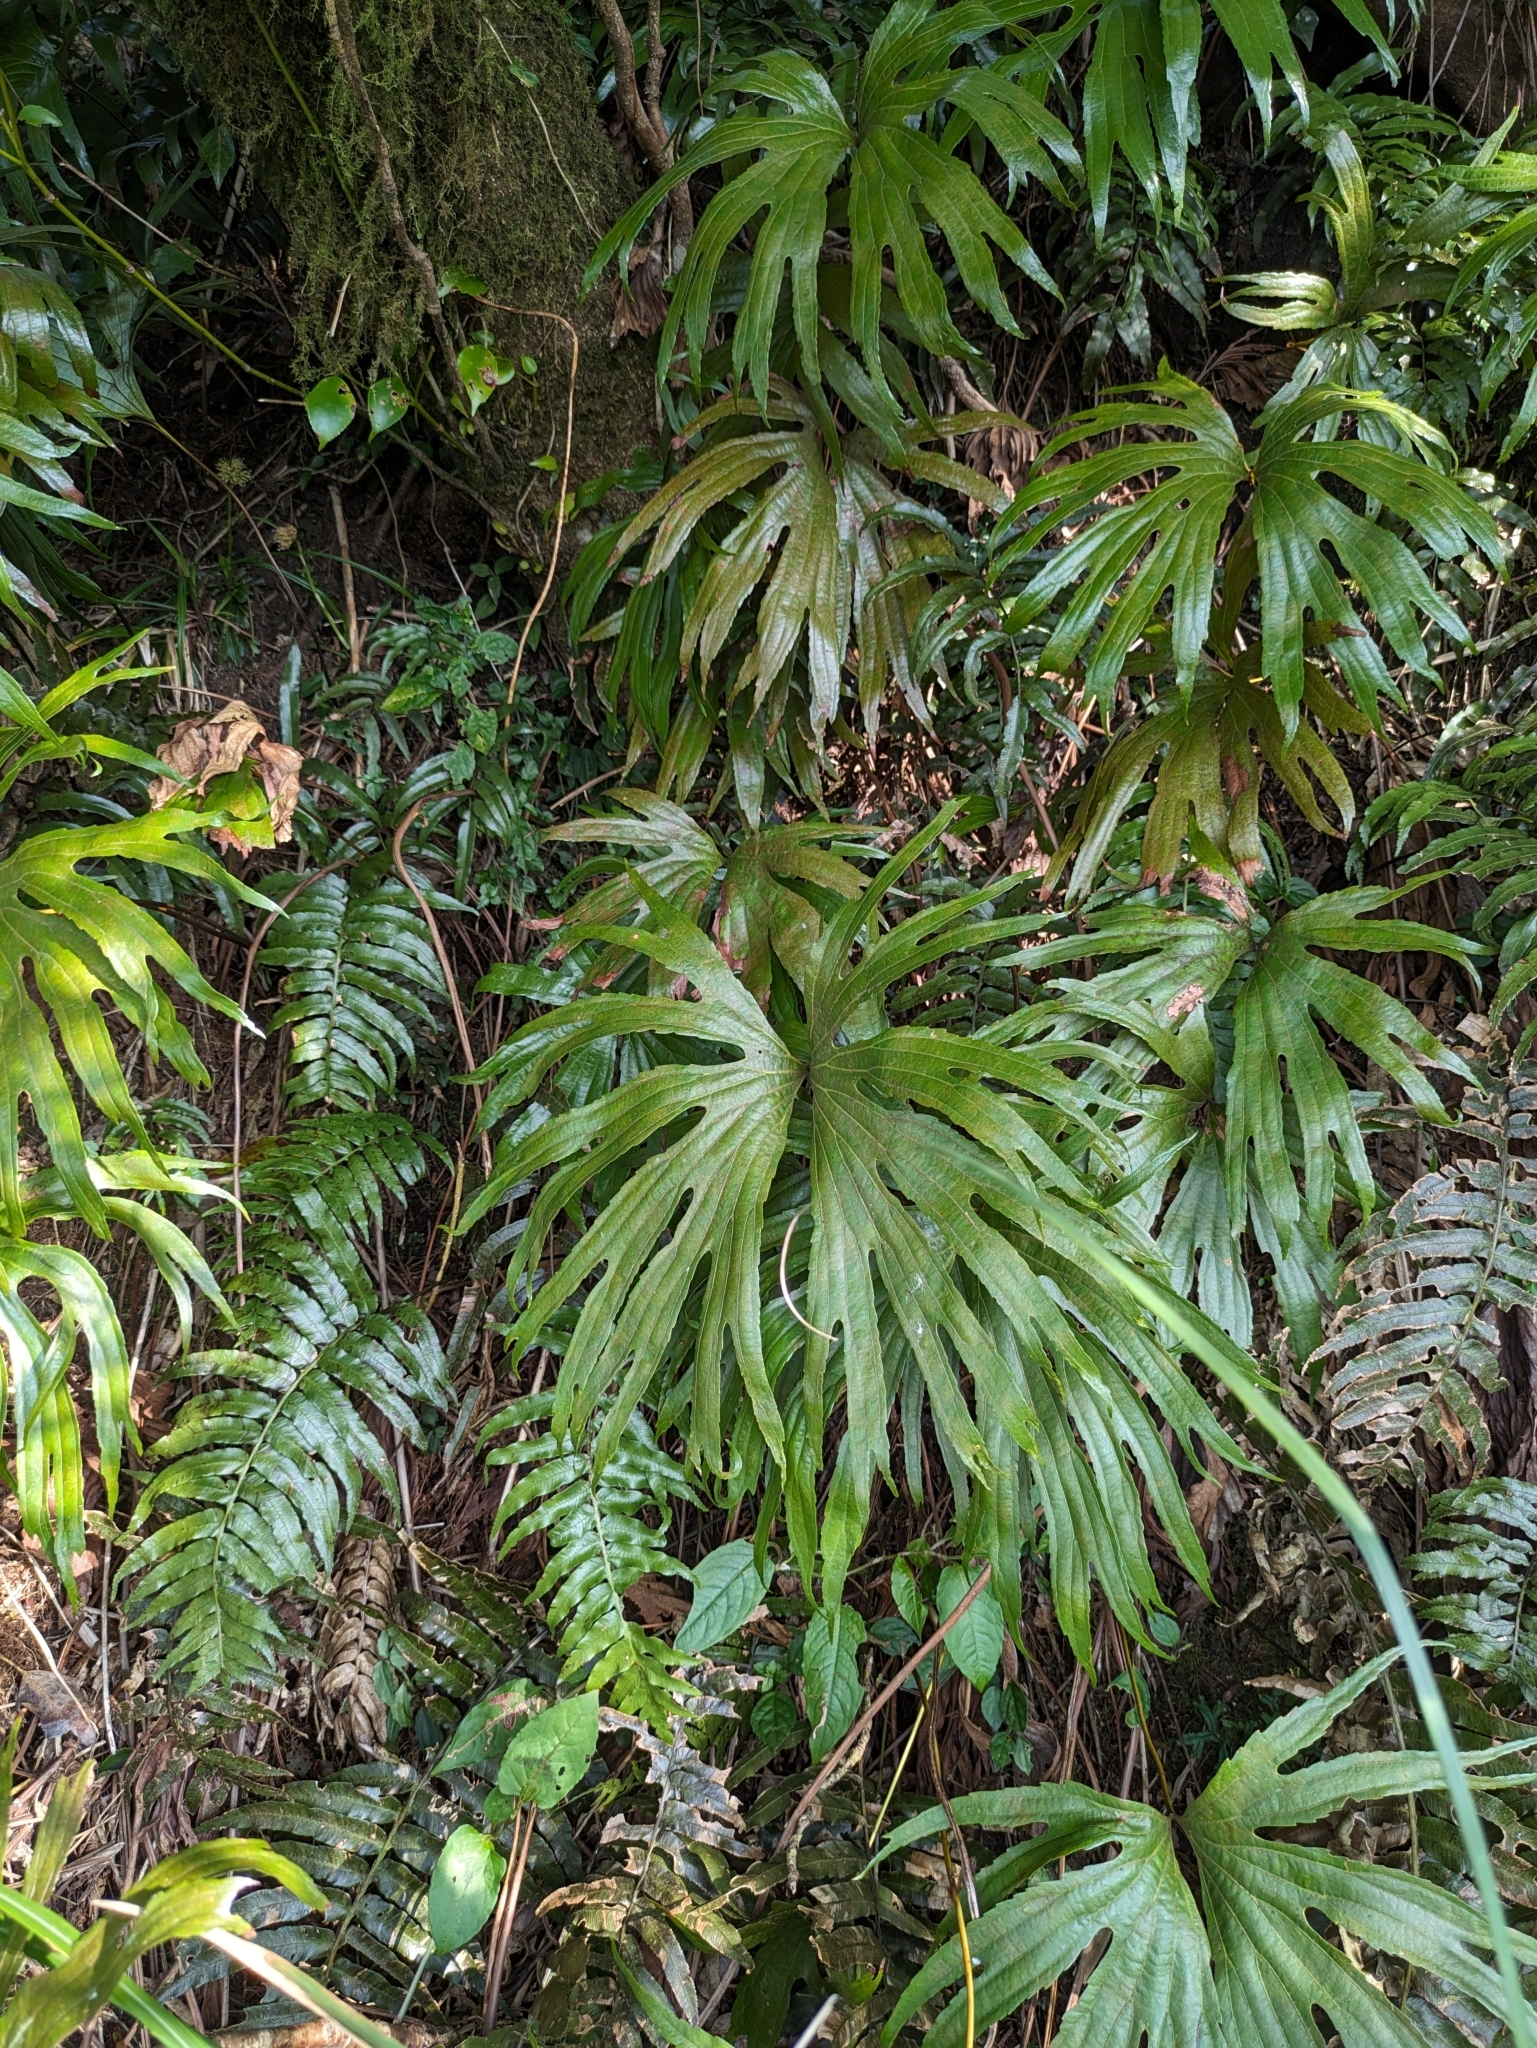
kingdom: Plantae
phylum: Tracheophyta
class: Polypodiopsida
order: Gleicheniales
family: Dipteridaceae
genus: Dipteris
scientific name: Dipteris conjugata
